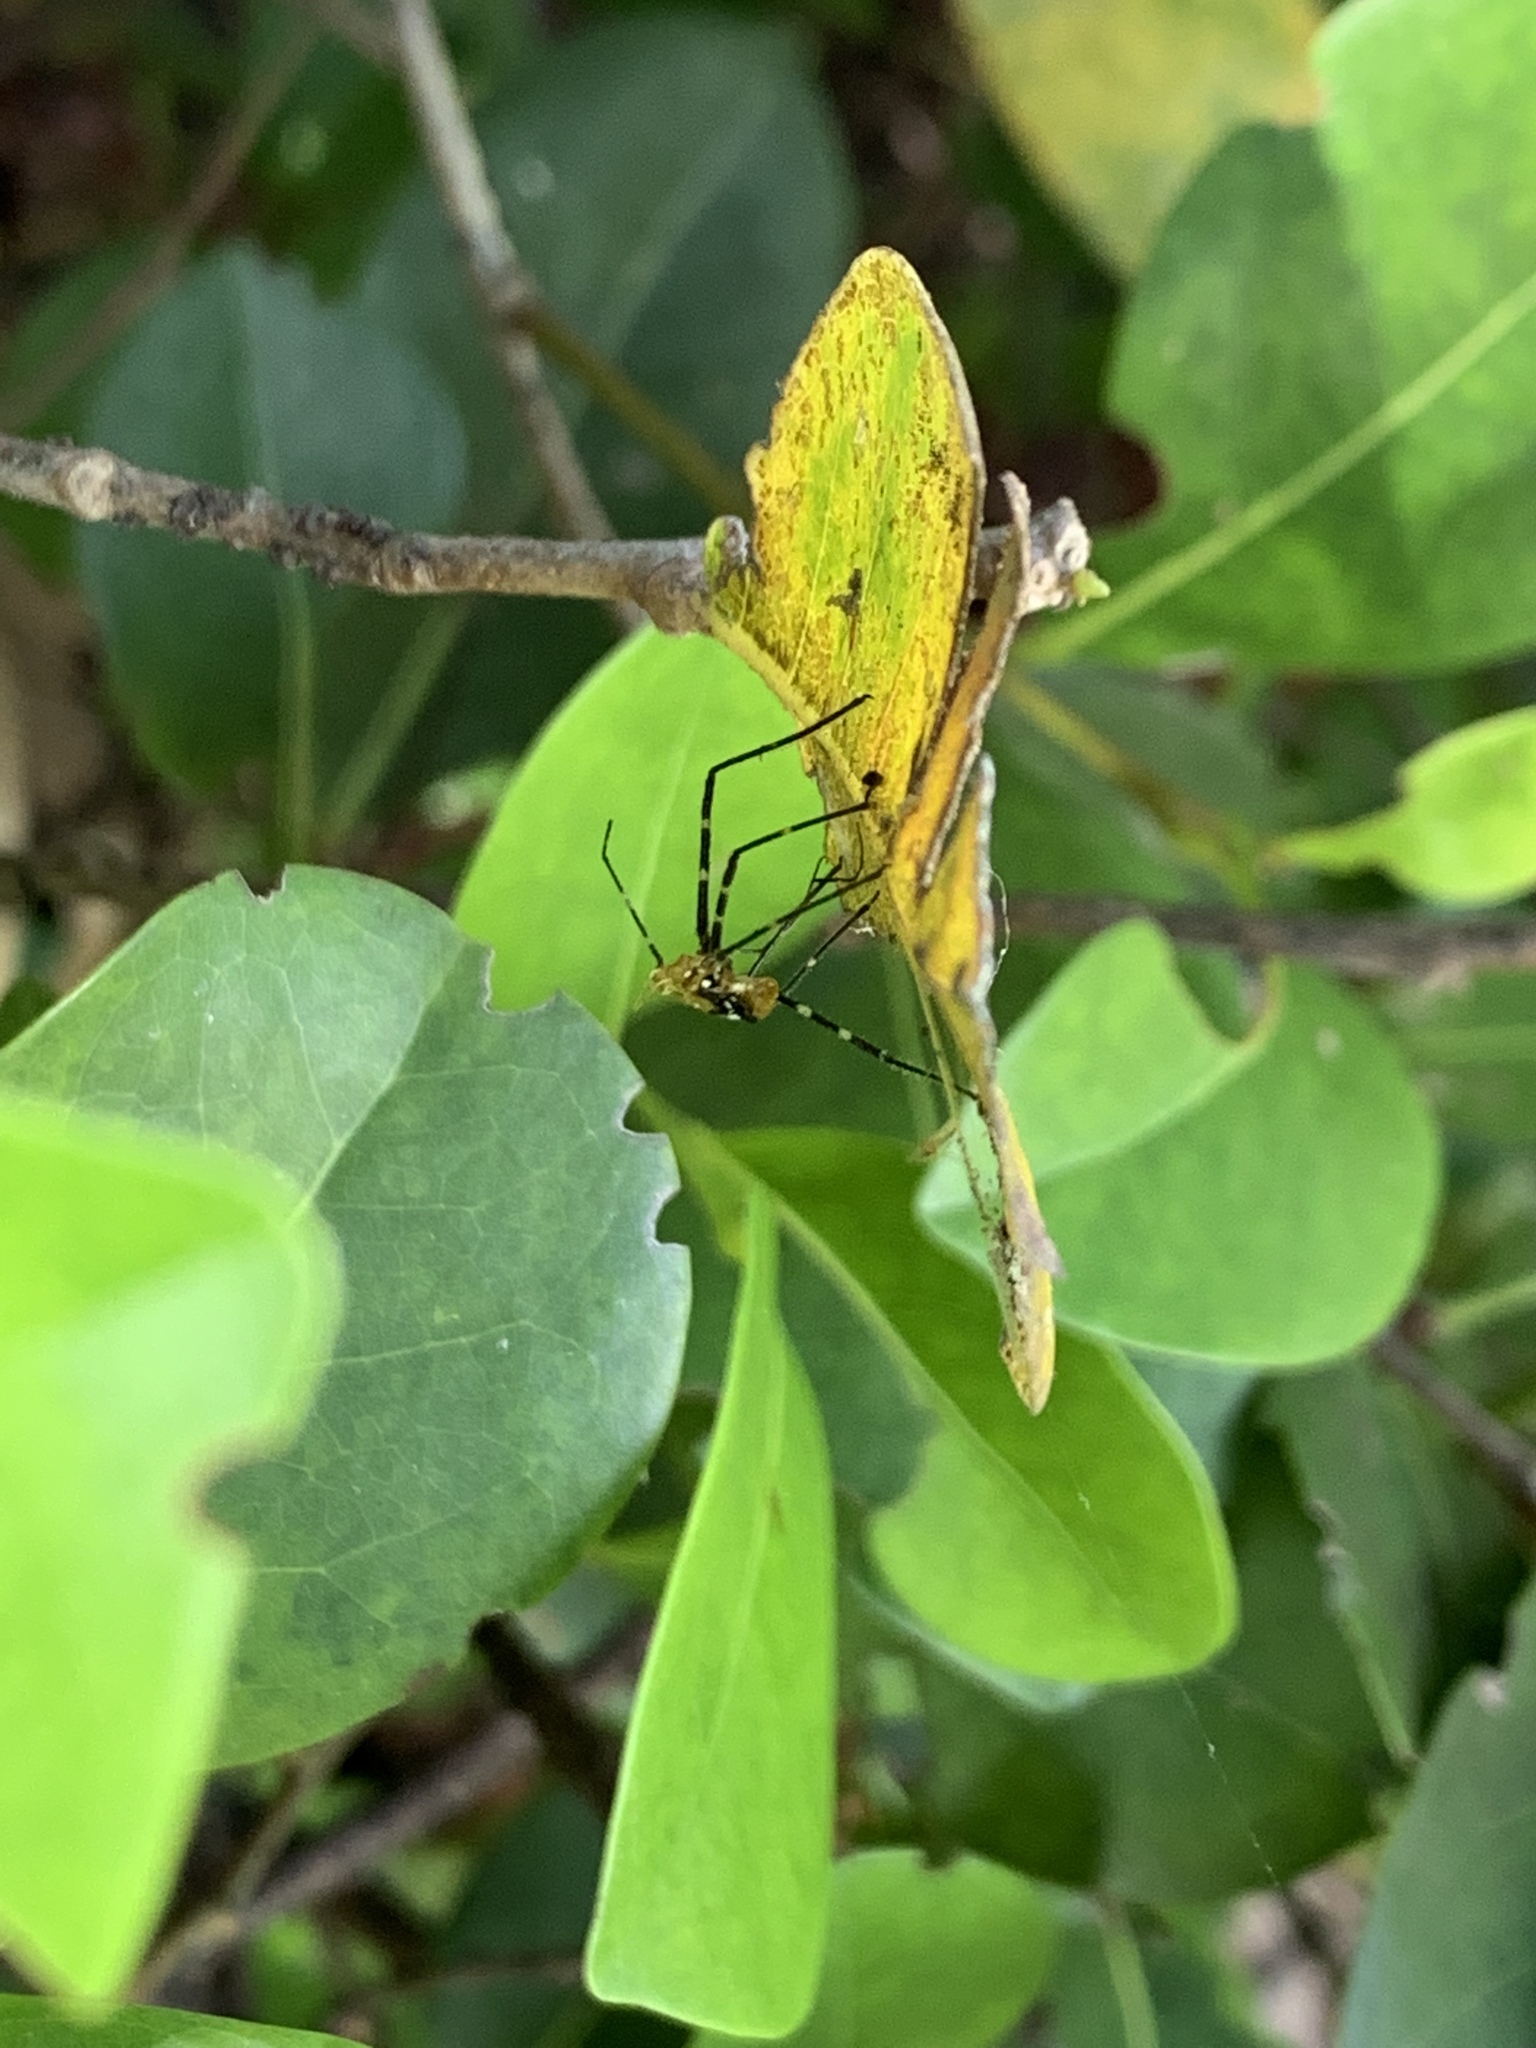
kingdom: Animalia
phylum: Arthropoda
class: Insecta
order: Hemiptera
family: Reduviidae
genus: Zelus
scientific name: Zelus longipes
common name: Milkweed assassin bug
